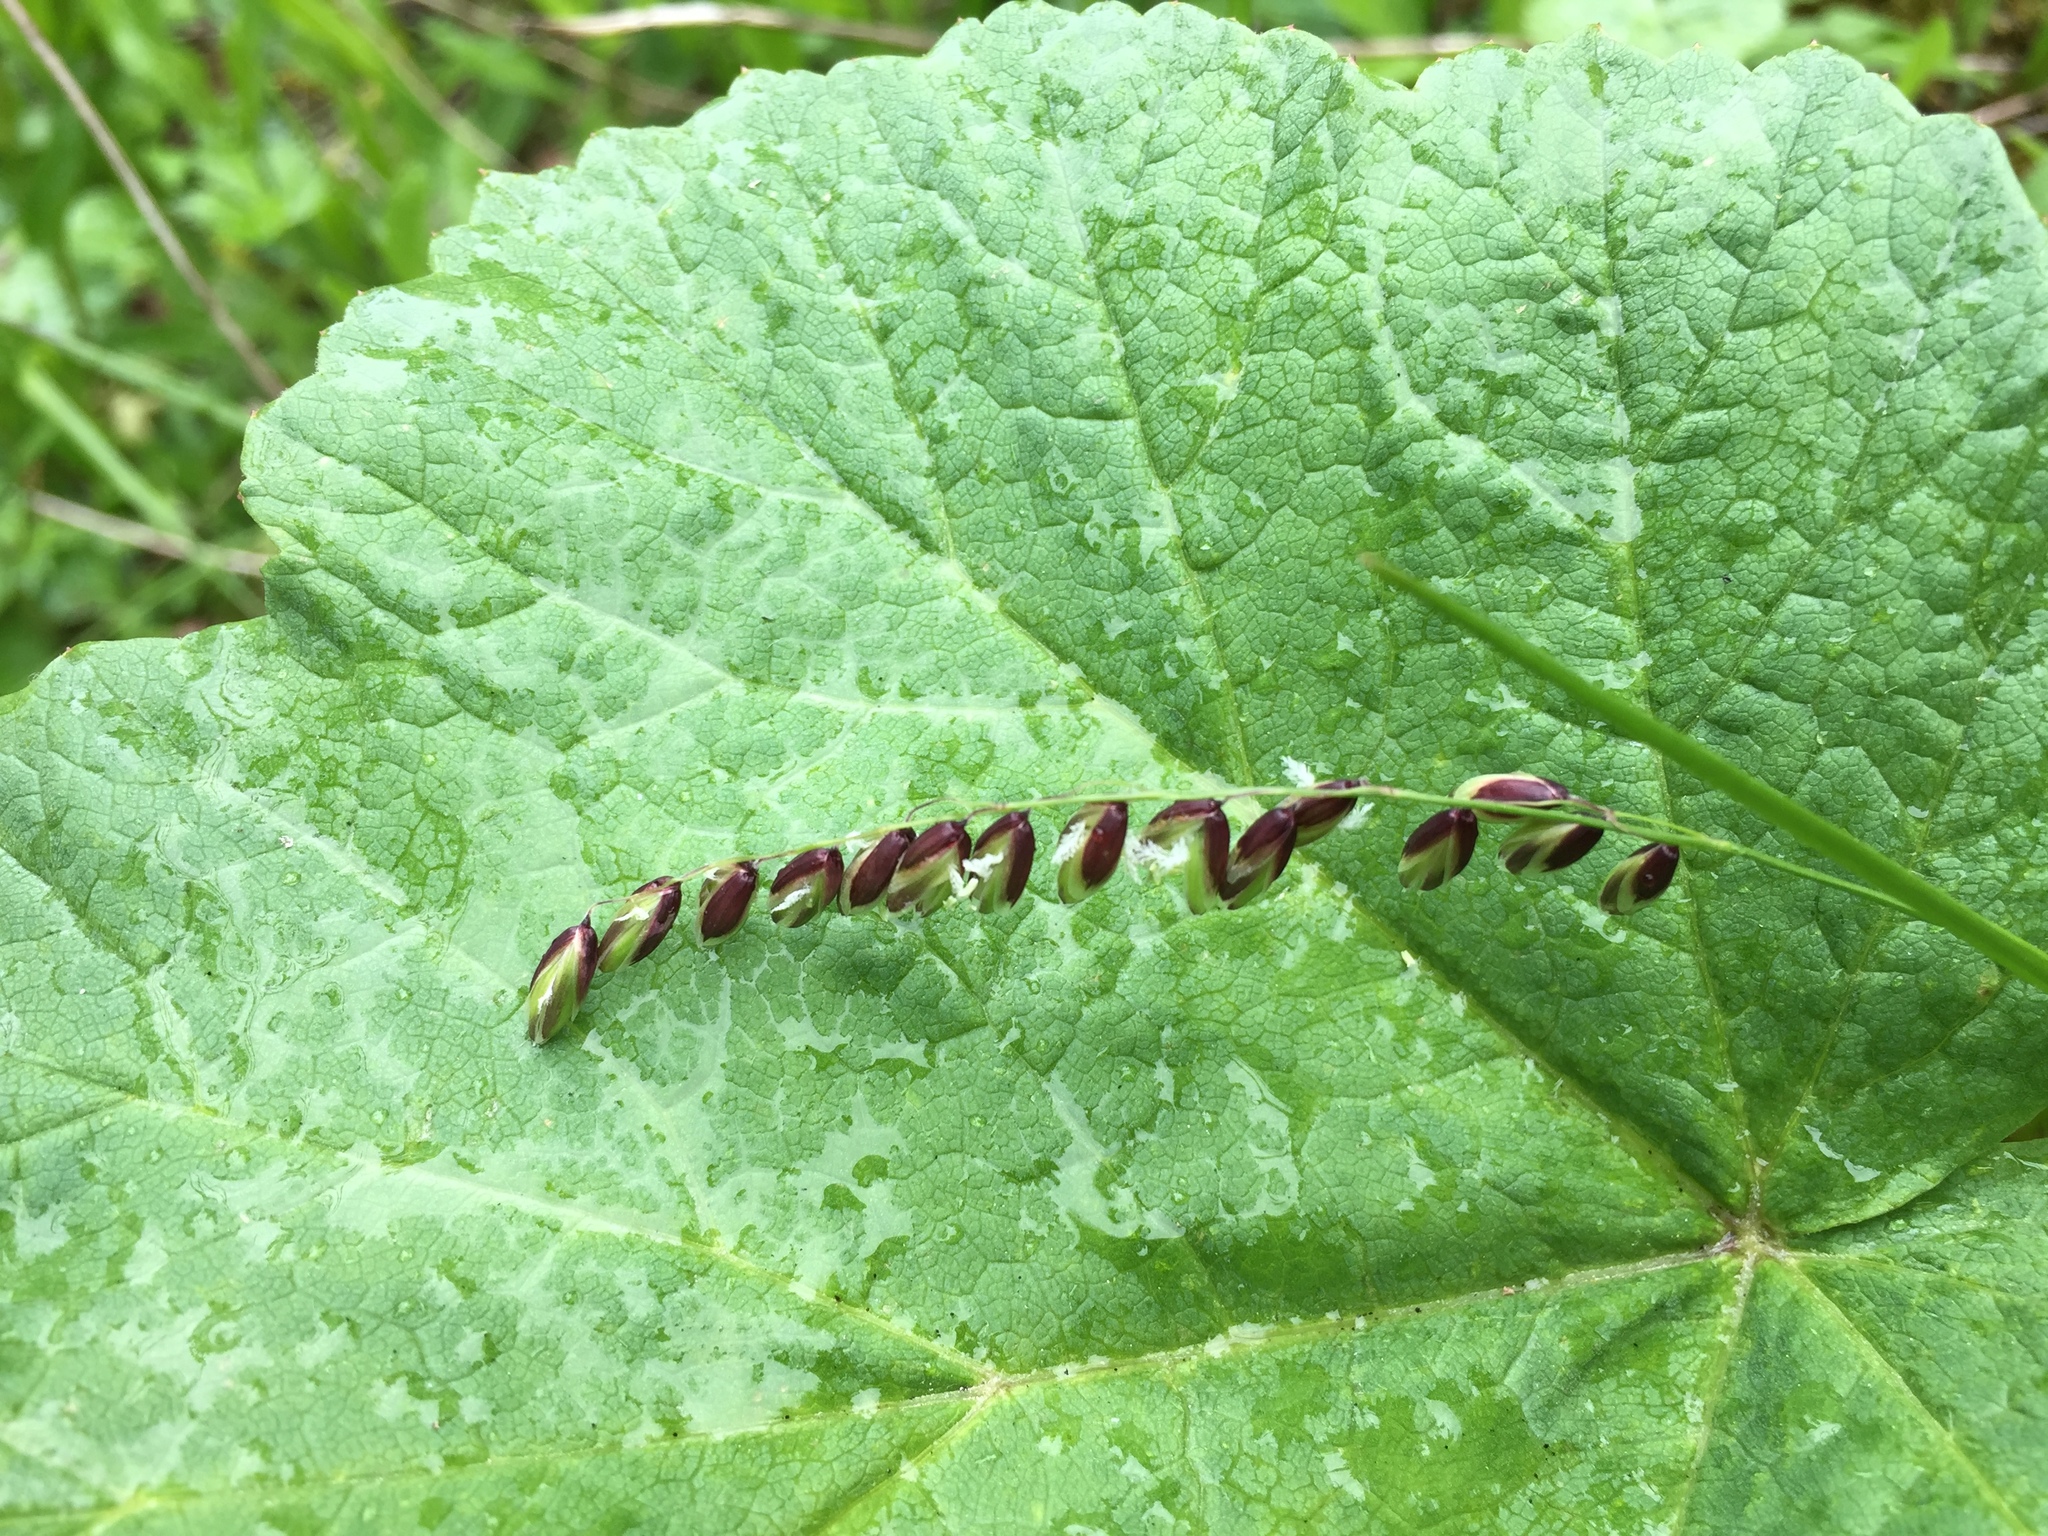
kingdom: Plantae
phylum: Tracheophyta
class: Liliopsida
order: Poales
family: Poaceae
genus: Melica
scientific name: Melica nutans
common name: Mountain melick
